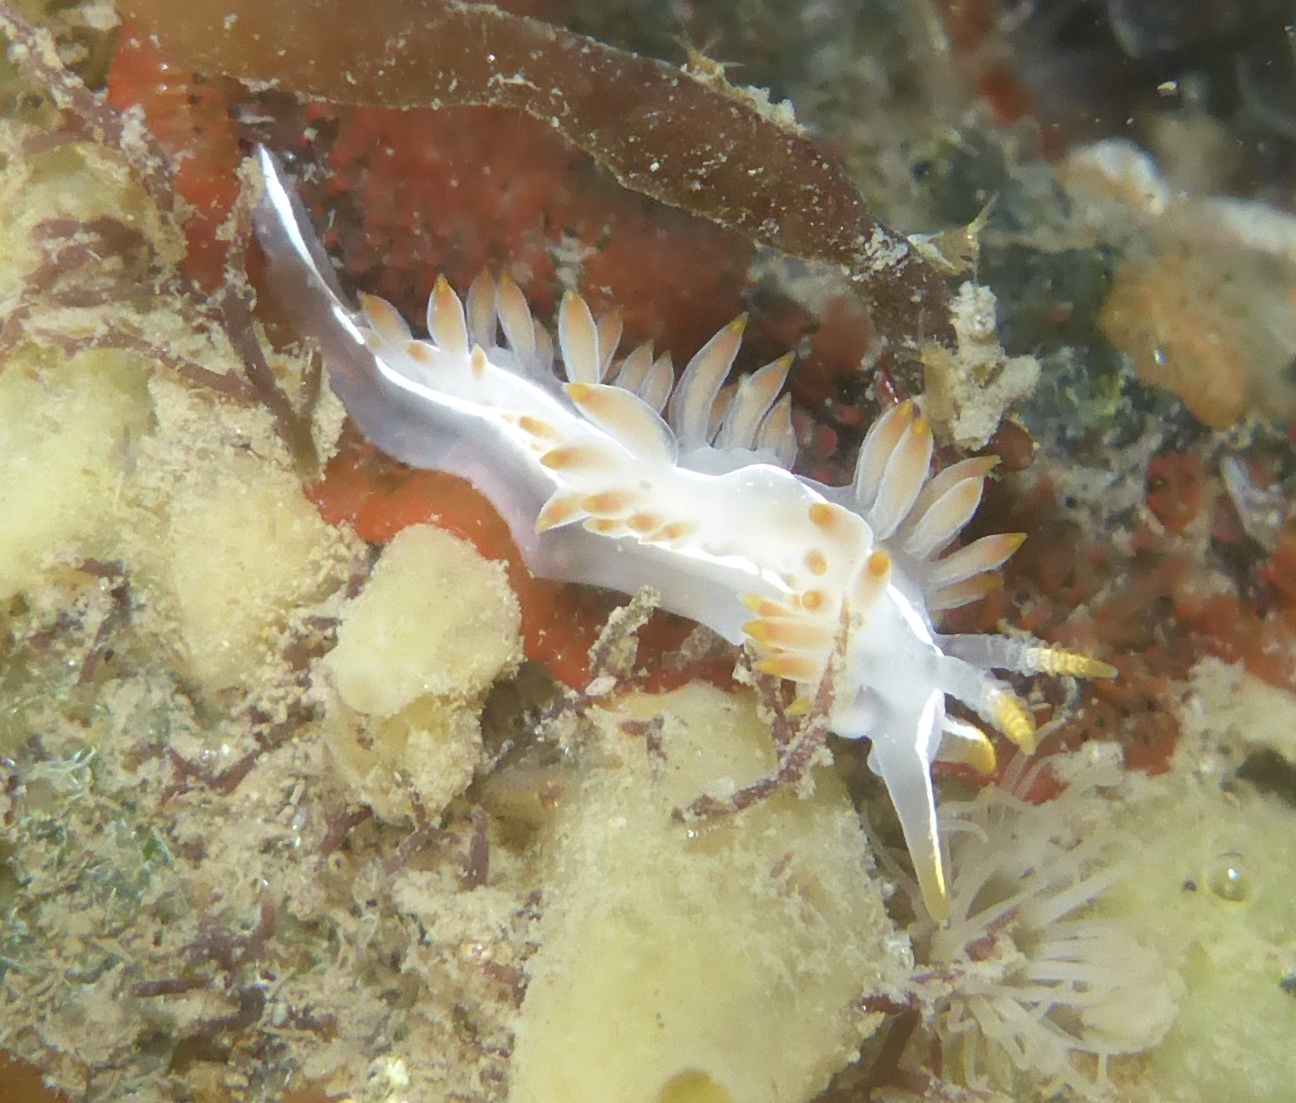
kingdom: Animalia
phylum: Mollusca
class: Gastropoda
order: Nudibranchia
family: Coryphellidae
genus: Coryphella
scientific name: Coryphella trilineata
